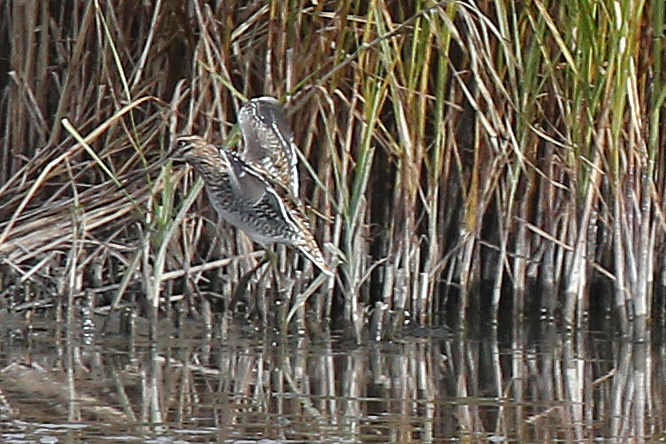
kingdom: Animalia
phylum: Chordata
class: Aves
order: Charadriiformes
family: Scolopacidae
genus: Gallinago
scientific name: Gallinago gallinago
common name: Common snipe
